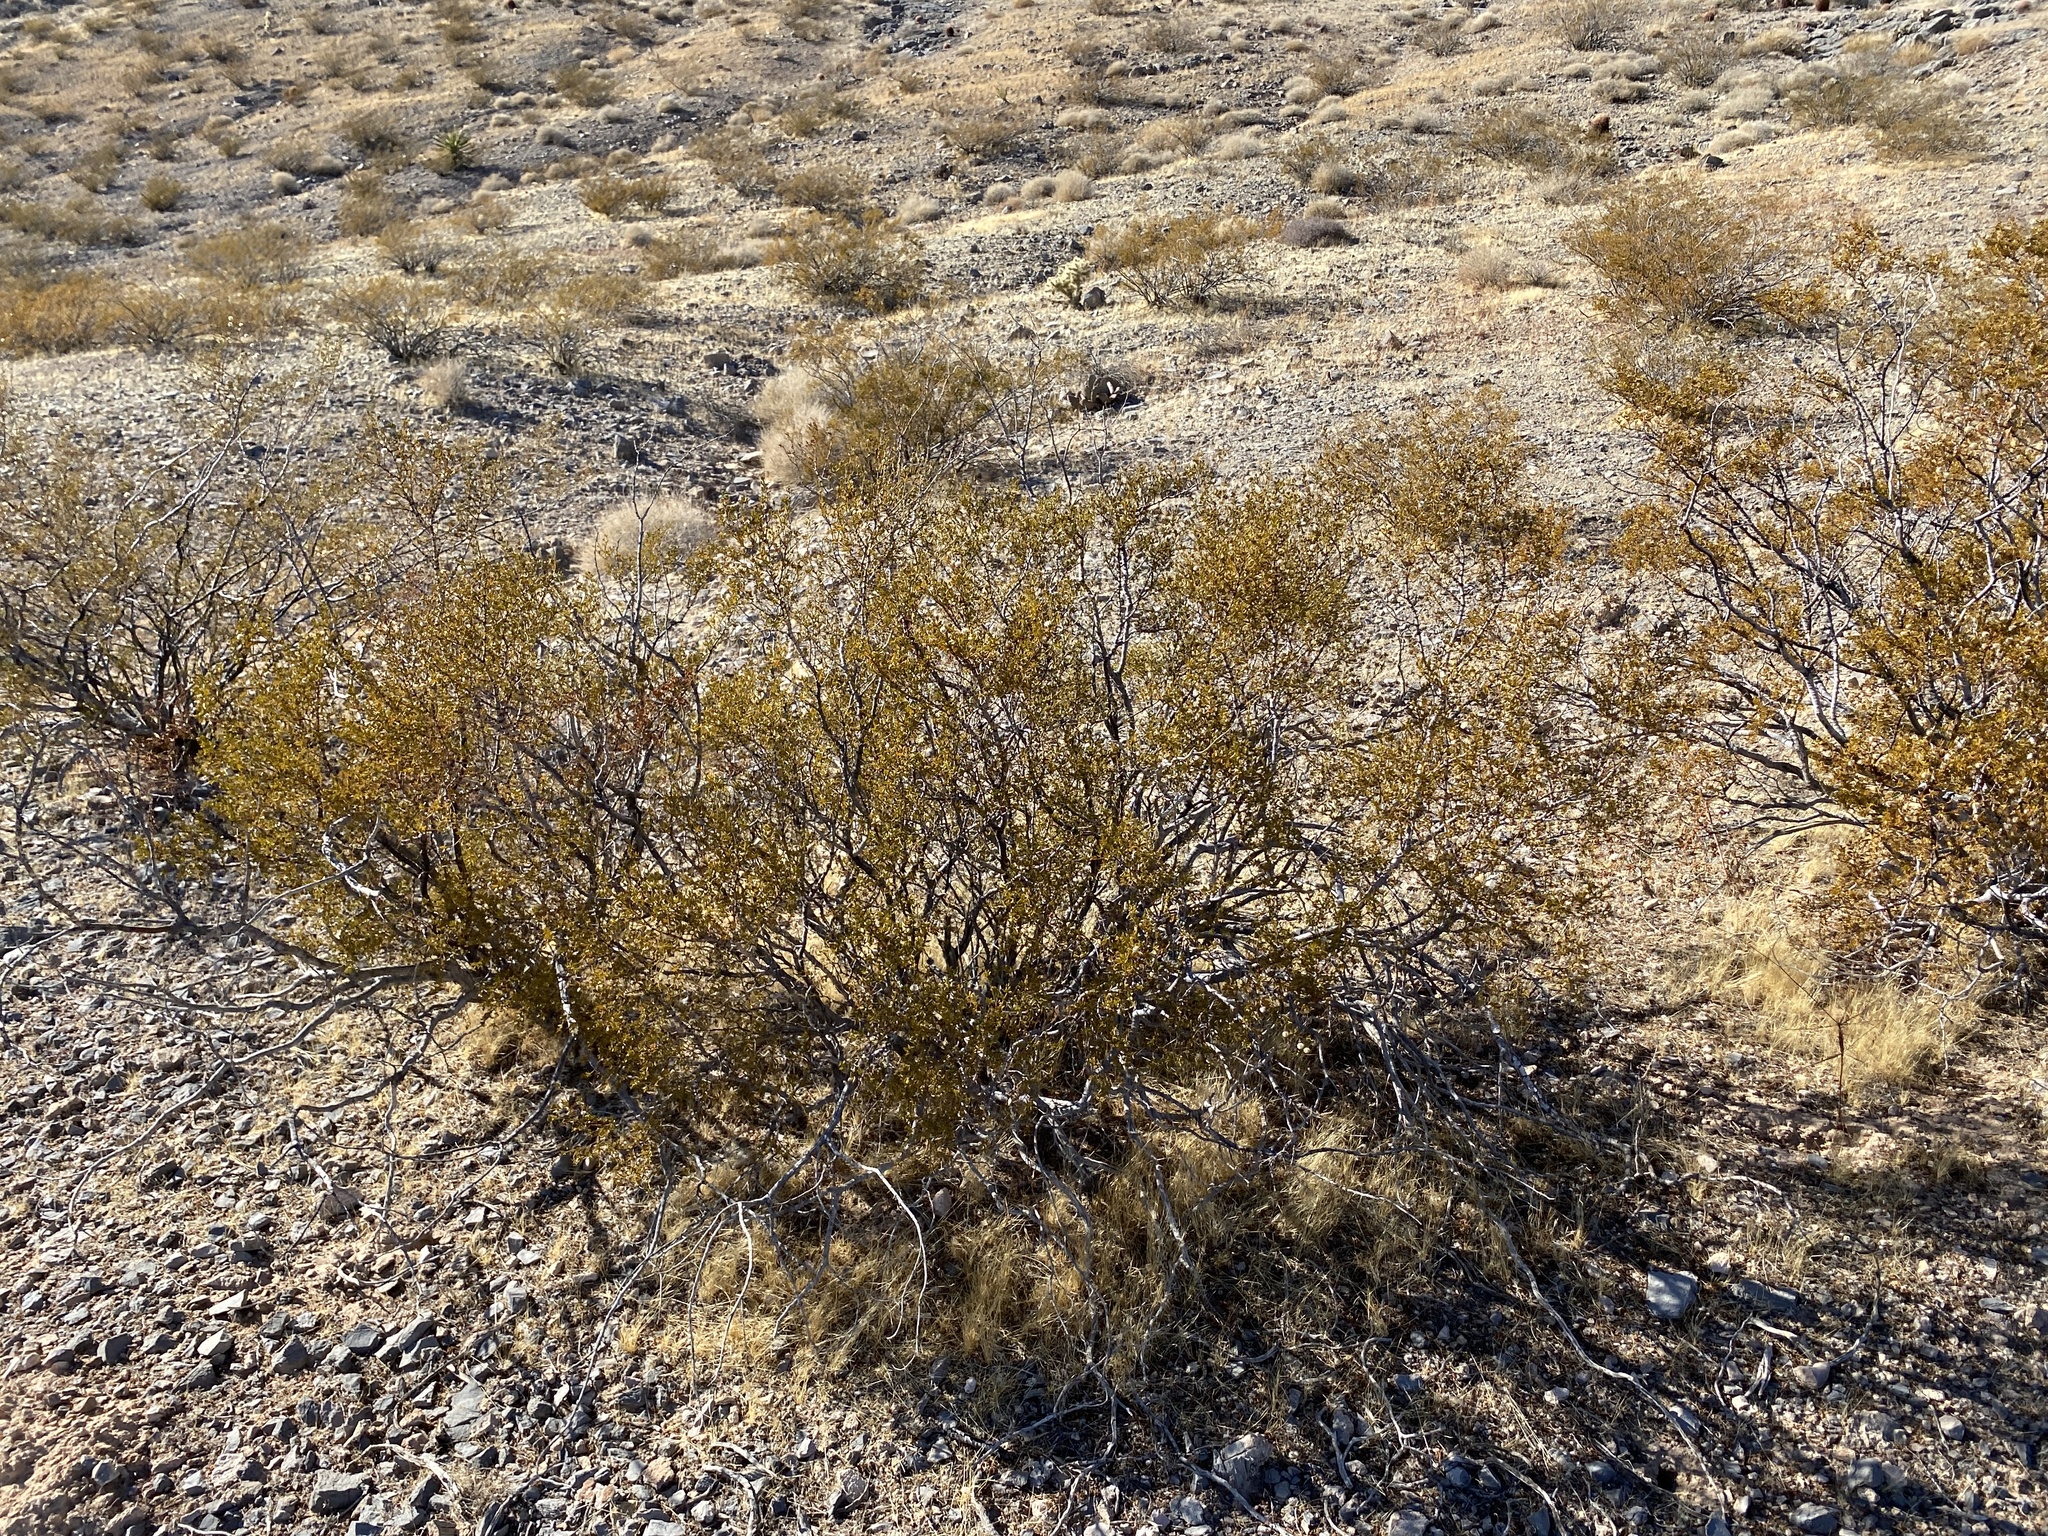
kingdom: Plantae
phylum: Tracheophyta
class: Magnoliopsida
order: Zygophyllales
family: Zygophyllaceae
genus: Larrea
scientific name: Larrea tridentata
